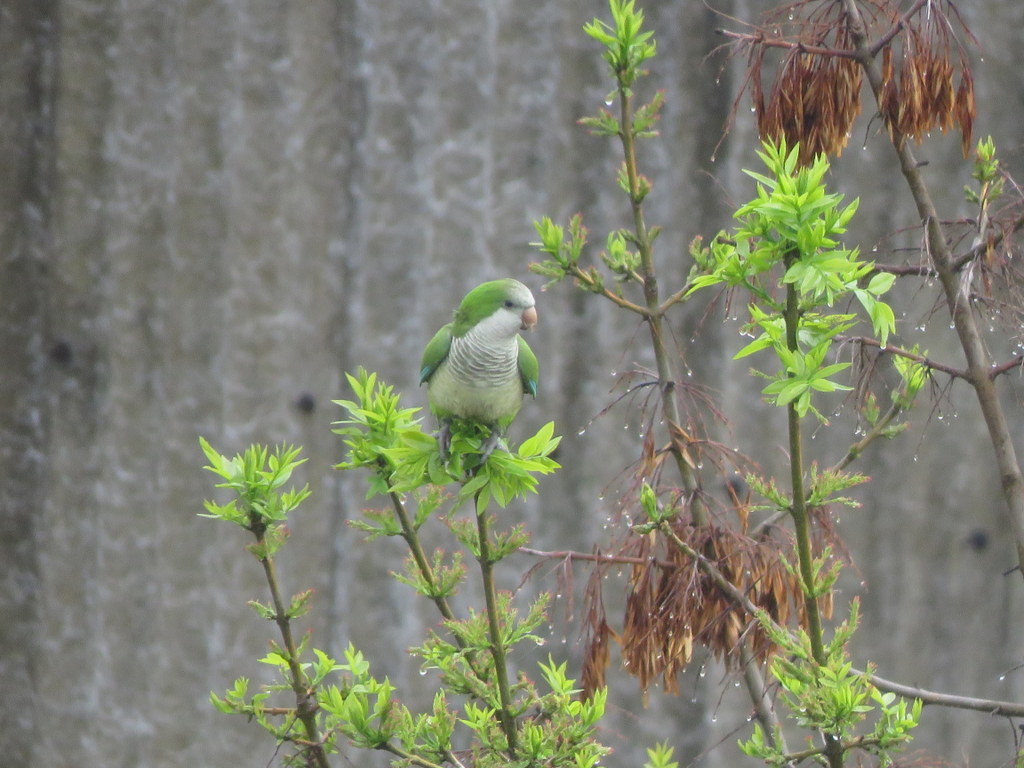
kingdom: Animalia
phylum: Chordata
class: Aves
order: Psittaciformes
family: Psittacidae
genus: Myiopsitta
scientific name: Myiopsitta monachus
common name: Monk parakeet
